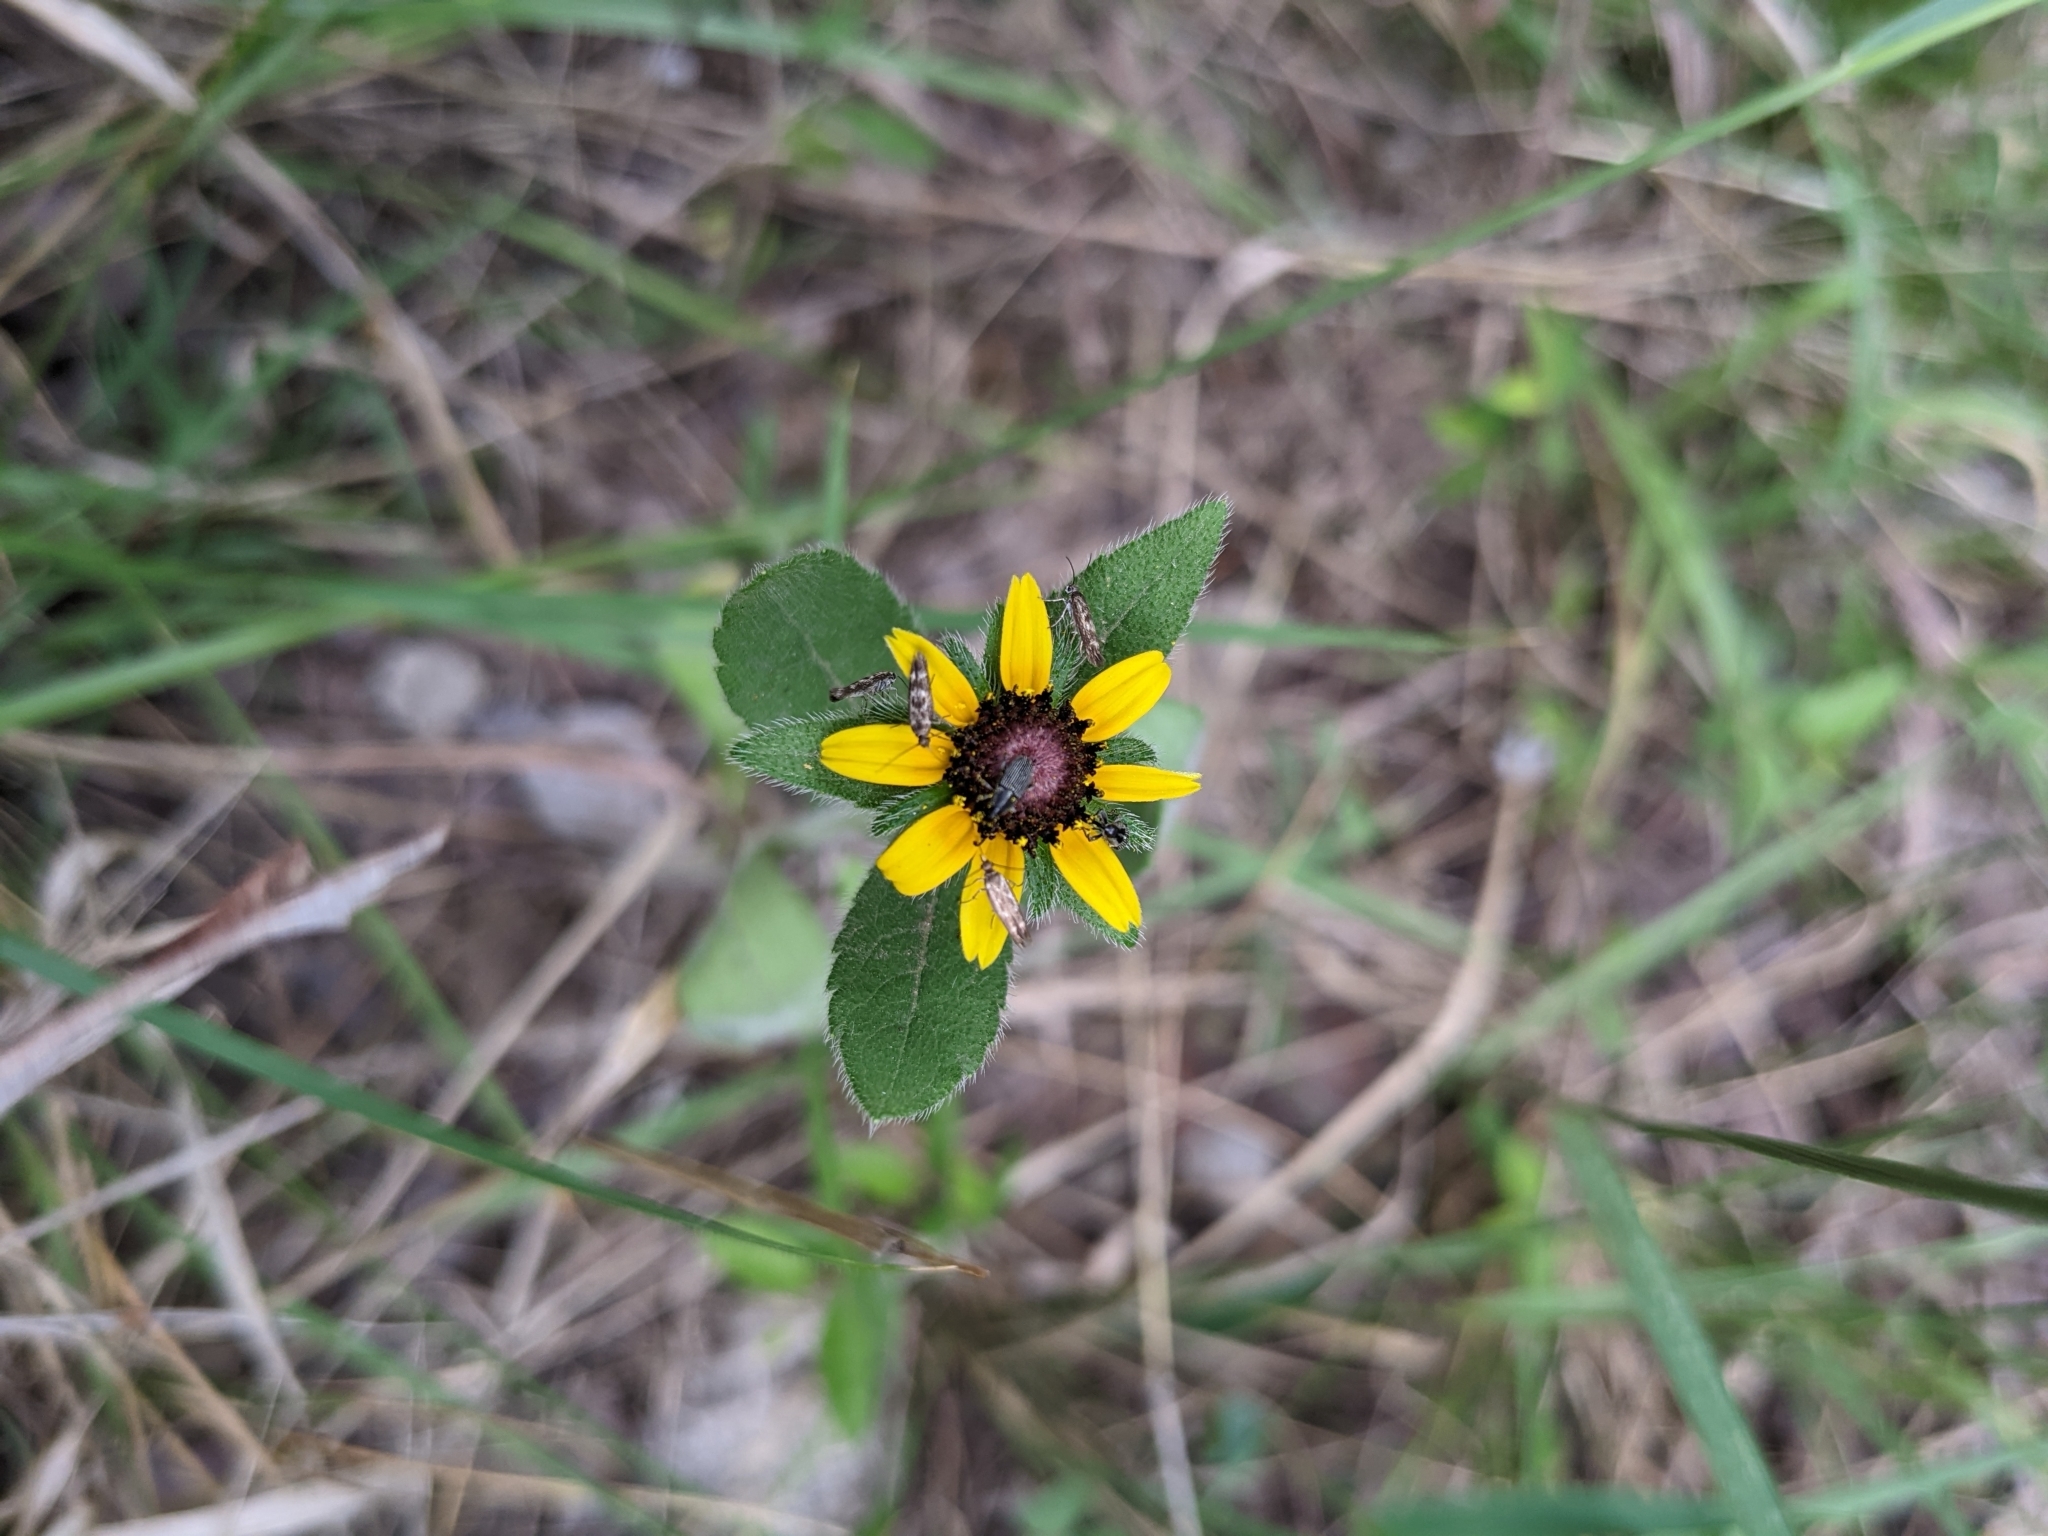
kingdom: Plantae
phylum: Tracheophyta
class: Magnoliopsida
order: Asterales
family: Asteraceae
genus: Rudbeckia
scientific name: Rudbeckia hirta
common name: Black-eyed-susan
